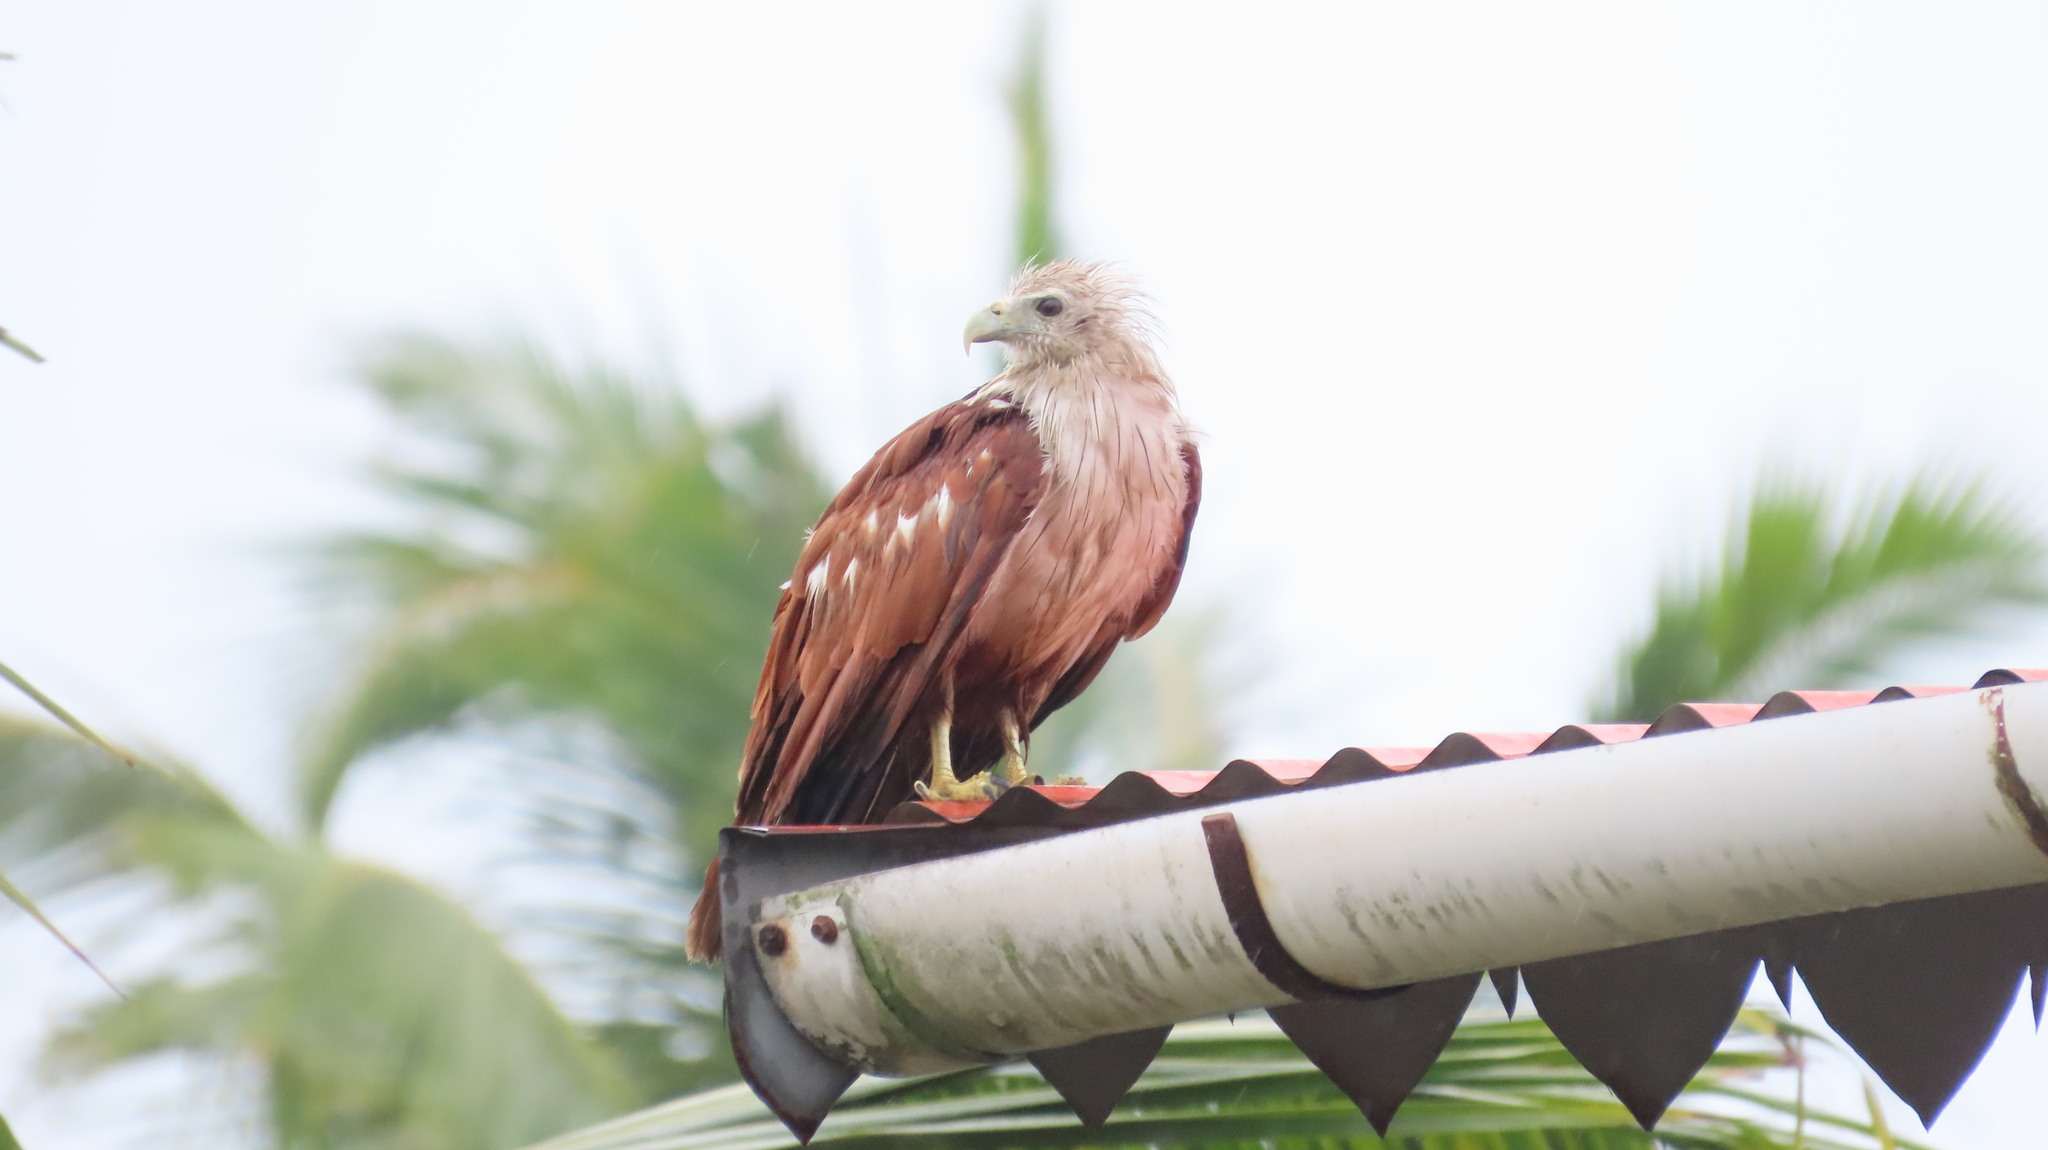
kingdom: Animalia
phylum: Chordata
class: Aves
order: Accipitriformes
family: Accipitridae
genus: Haliastur
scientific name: Haliastur indus
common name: Brahminy kite
